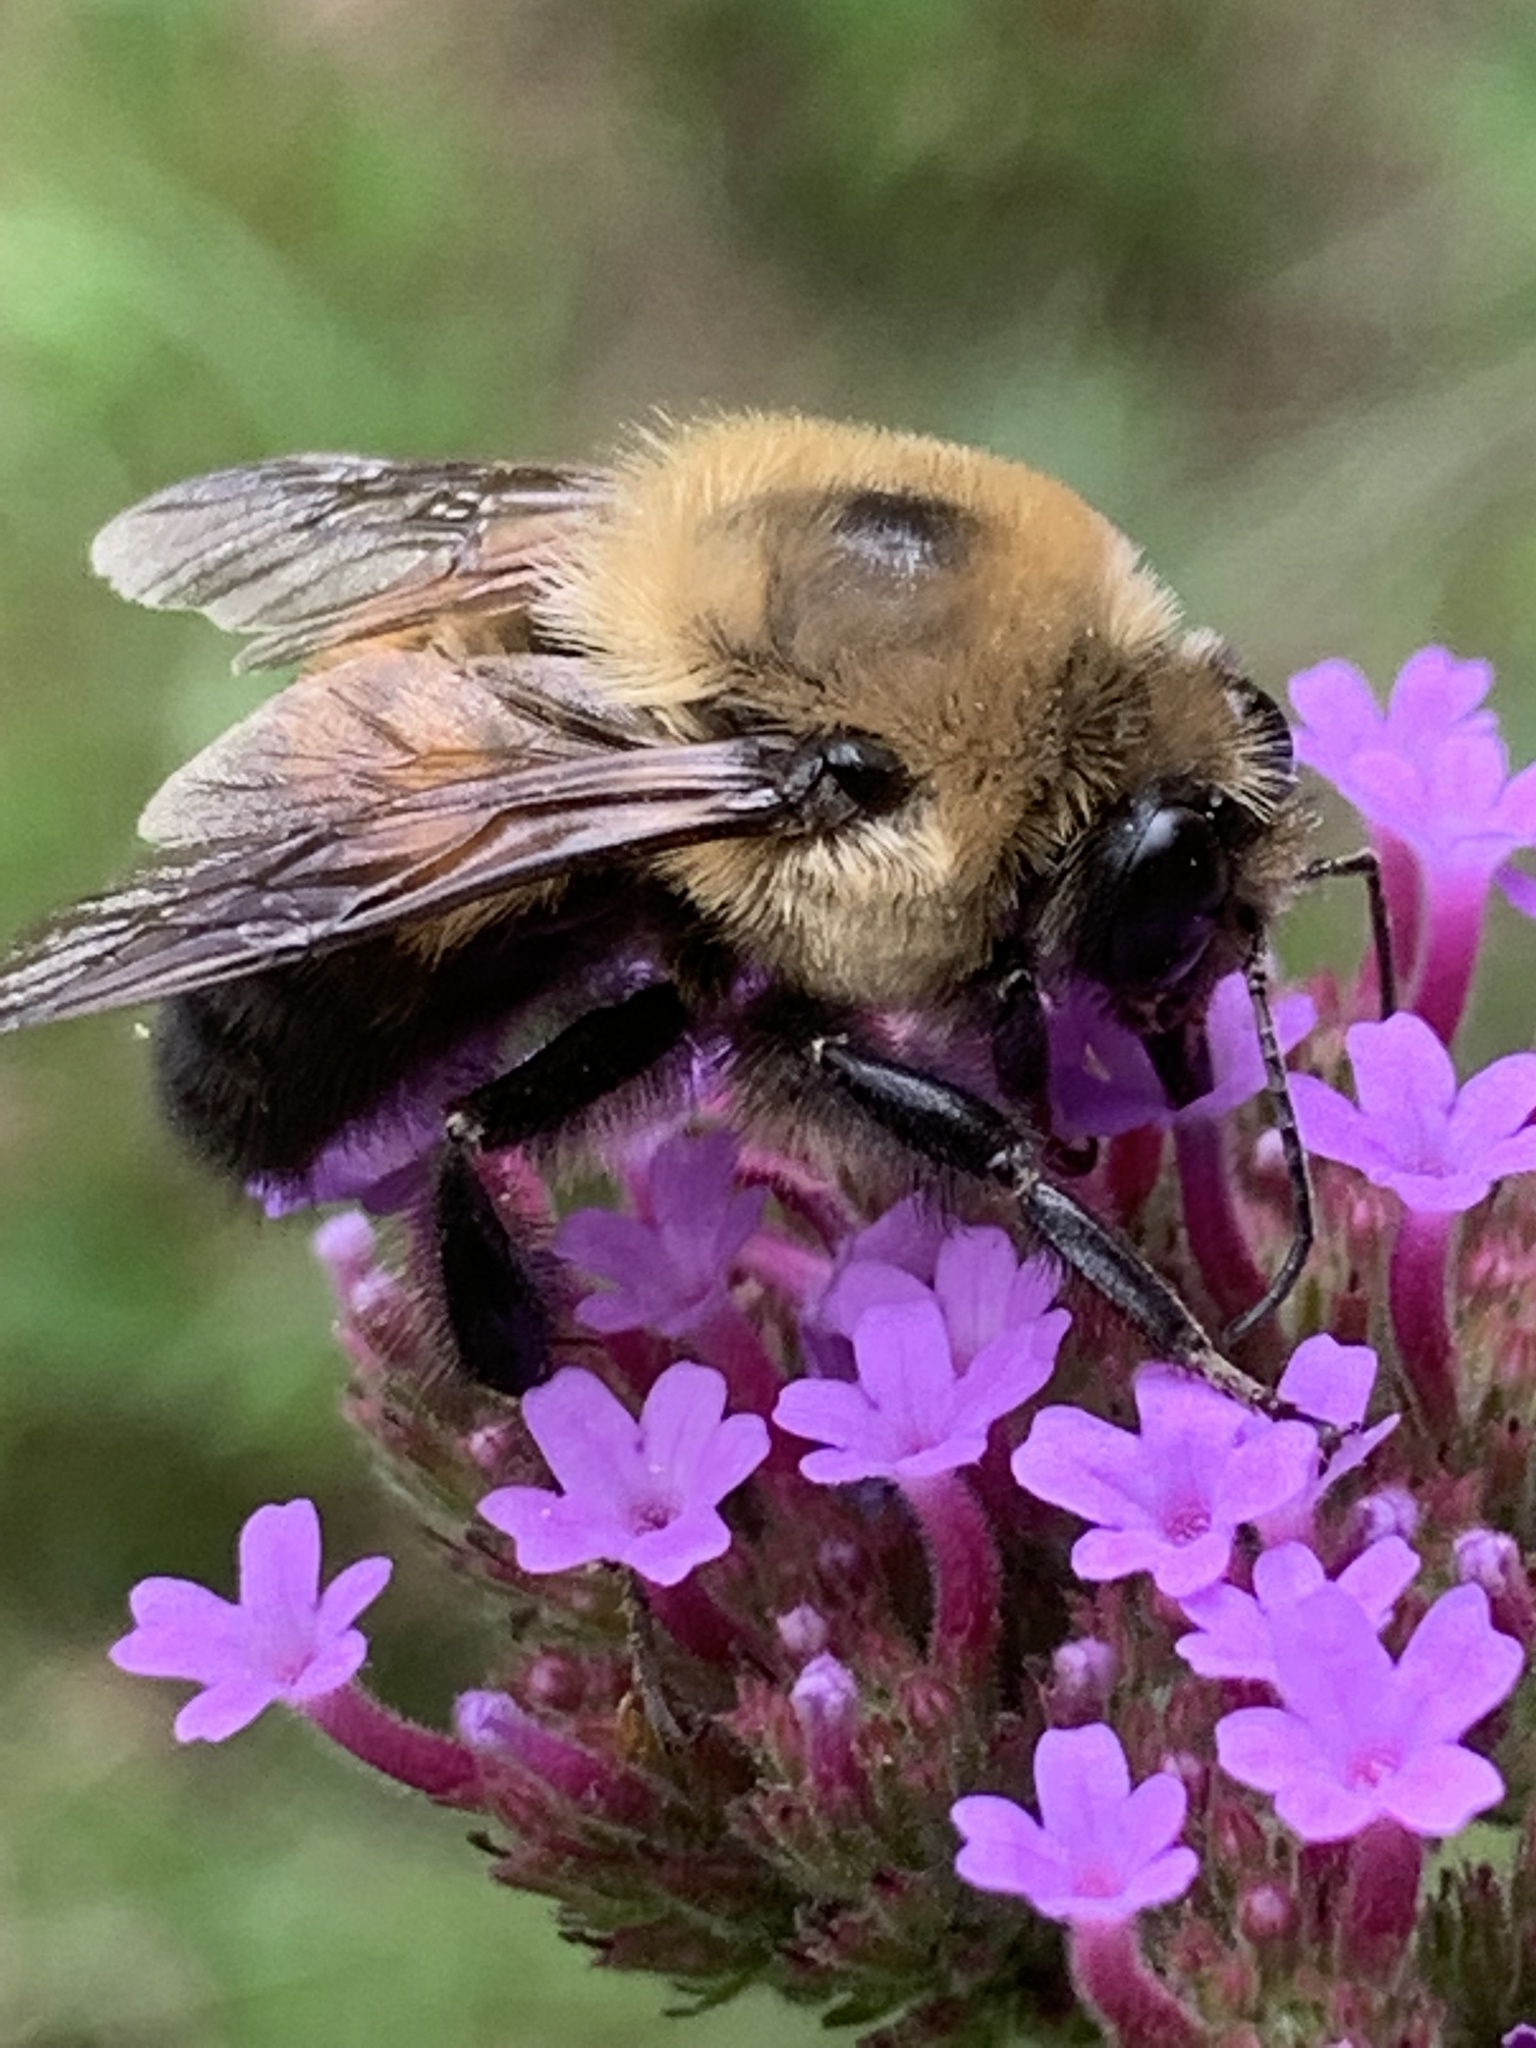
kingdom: Animalia
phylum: Arthropoda
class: Insecta
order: Hymenoptera
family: Apidae
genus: Bombus
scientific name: Bombus griseocollis
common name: Brown-belted bumble bee
